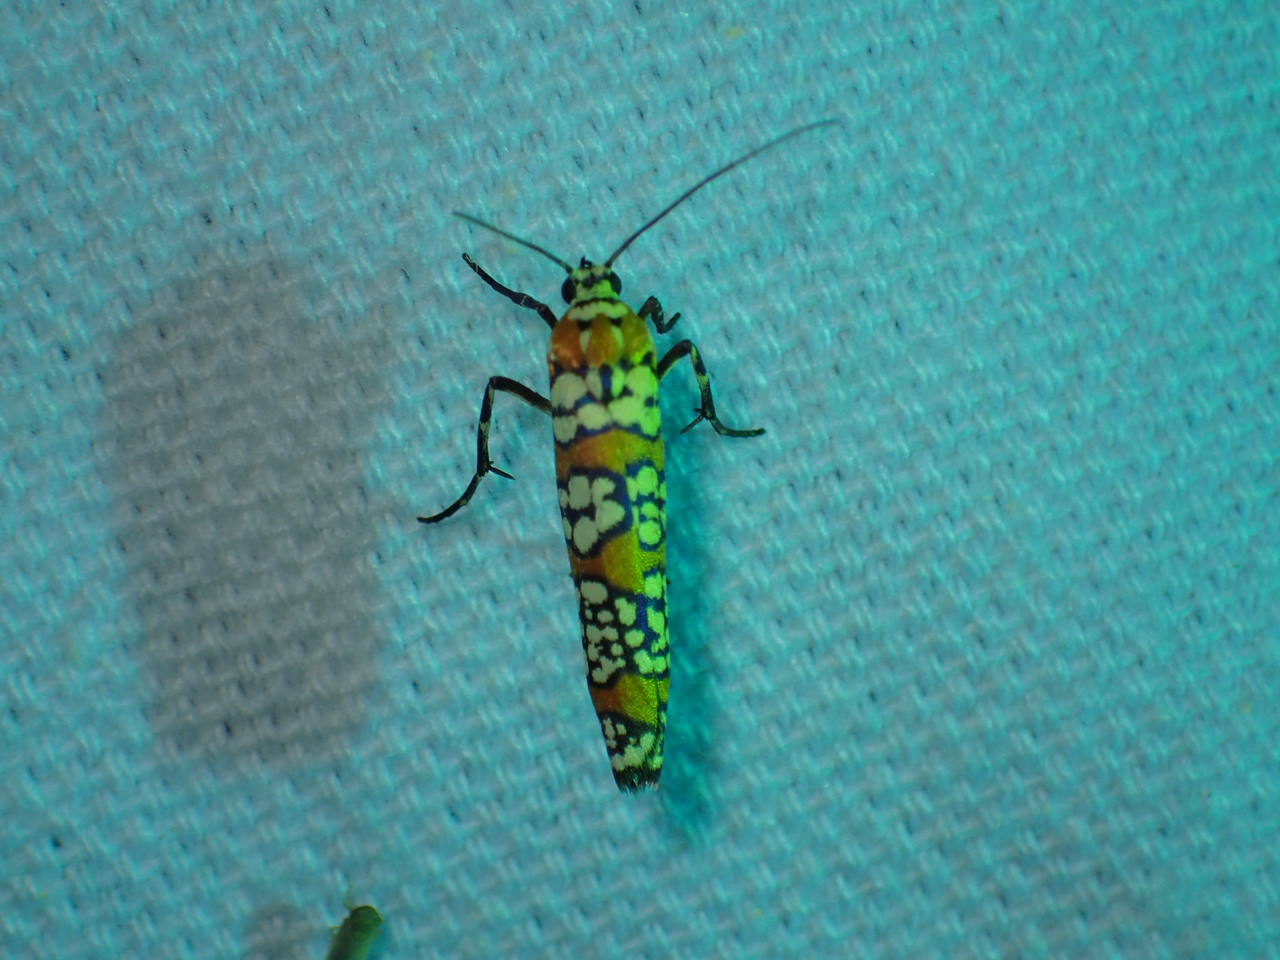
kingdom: Animalia
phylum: Arthropoda
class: Insecta
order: Lepidoptera
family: Attevidae
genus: Atteva
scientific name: Atteva punctella
